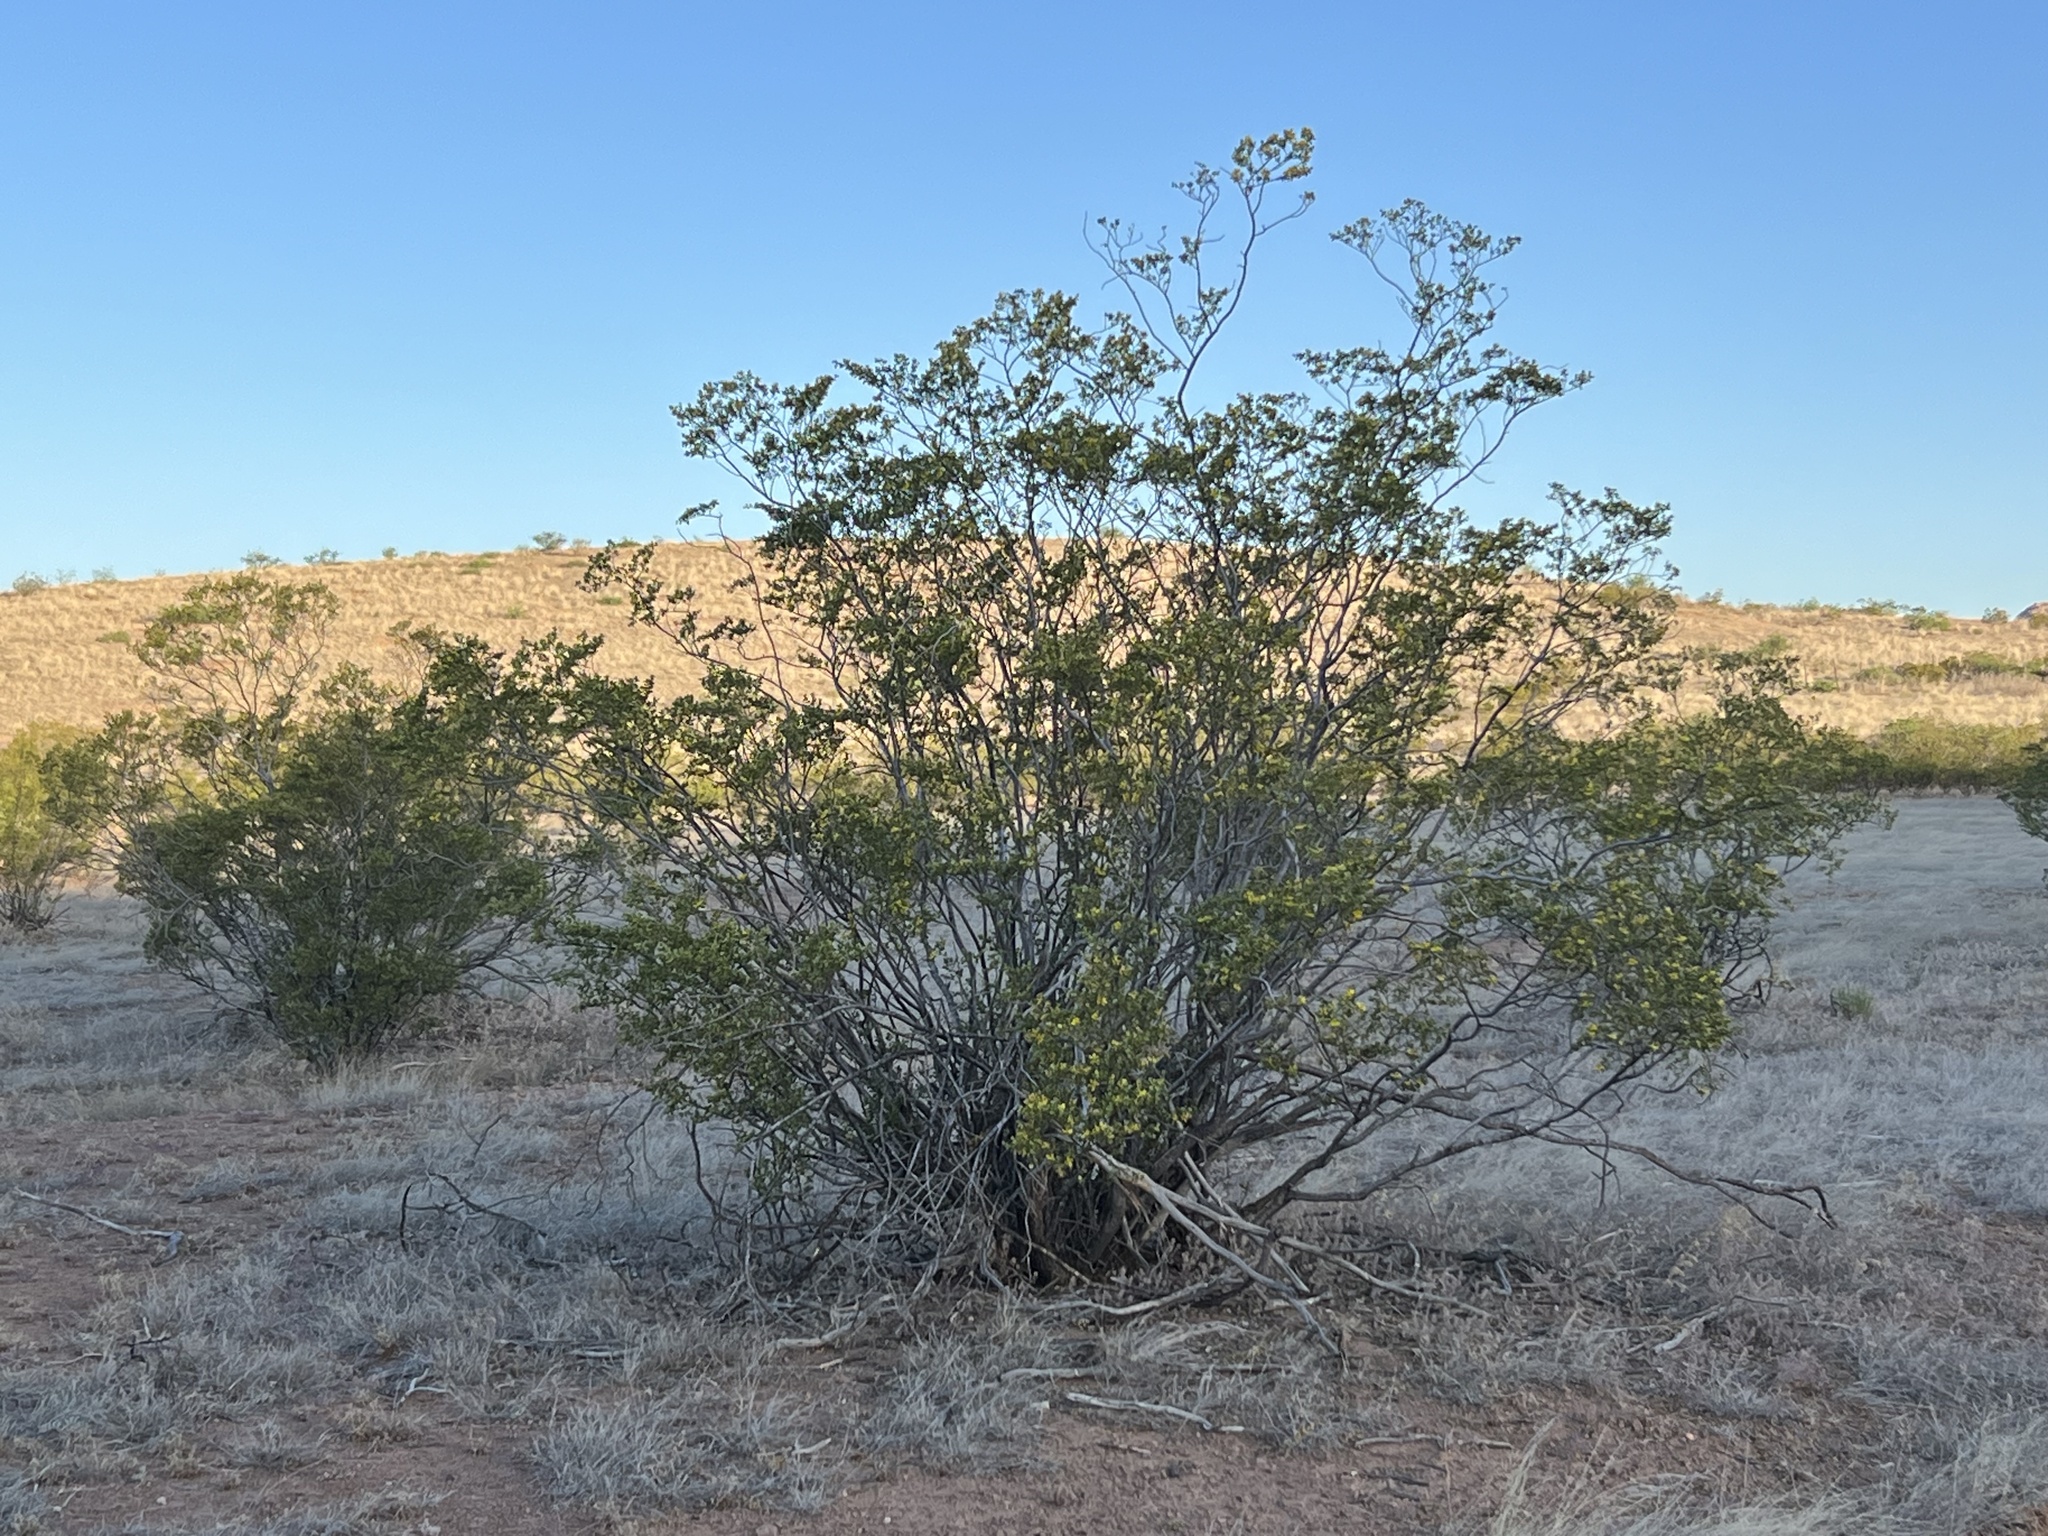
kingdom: Plantae
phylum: Tracheophyta
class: Magnoliopsida
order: Zygophyllales
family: Zygophyllaceae
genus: Larrea
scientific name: Larrea tridentata
